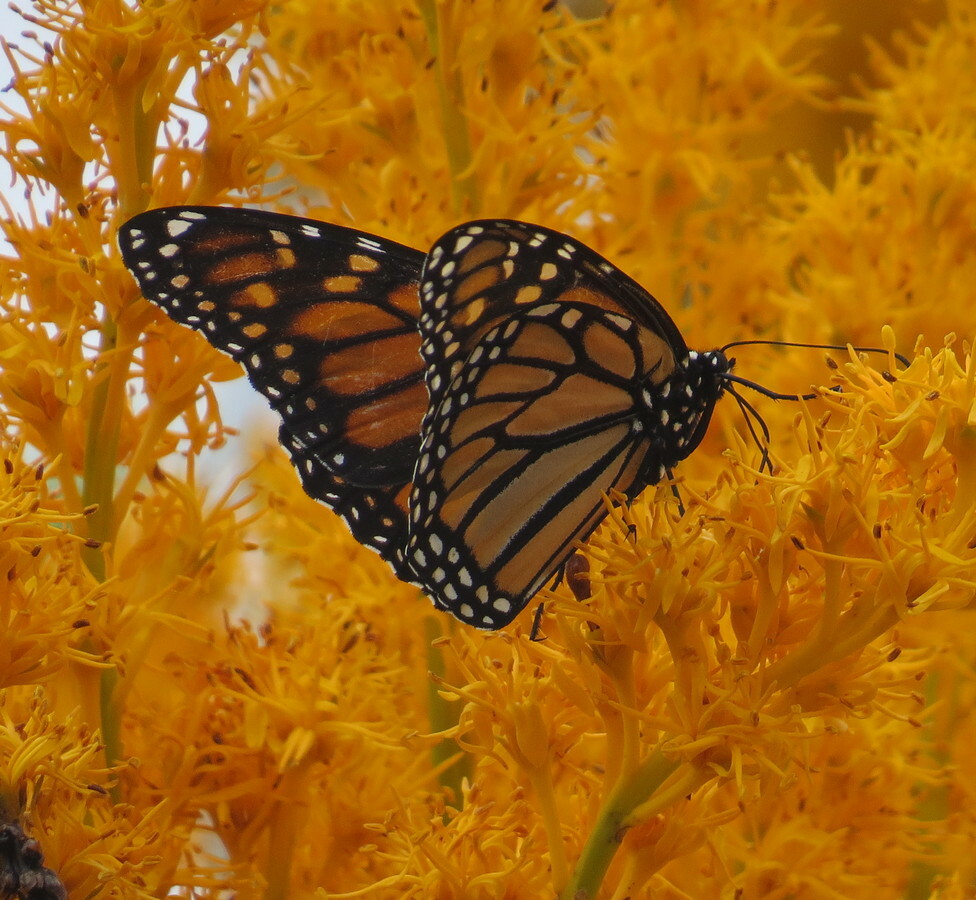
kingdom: Animalia
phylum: Arthropoda
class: Insecta
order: Lepidoptera
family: Nymphalidae
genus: Danaus
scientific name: Danaus plexippus
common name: Monarch
